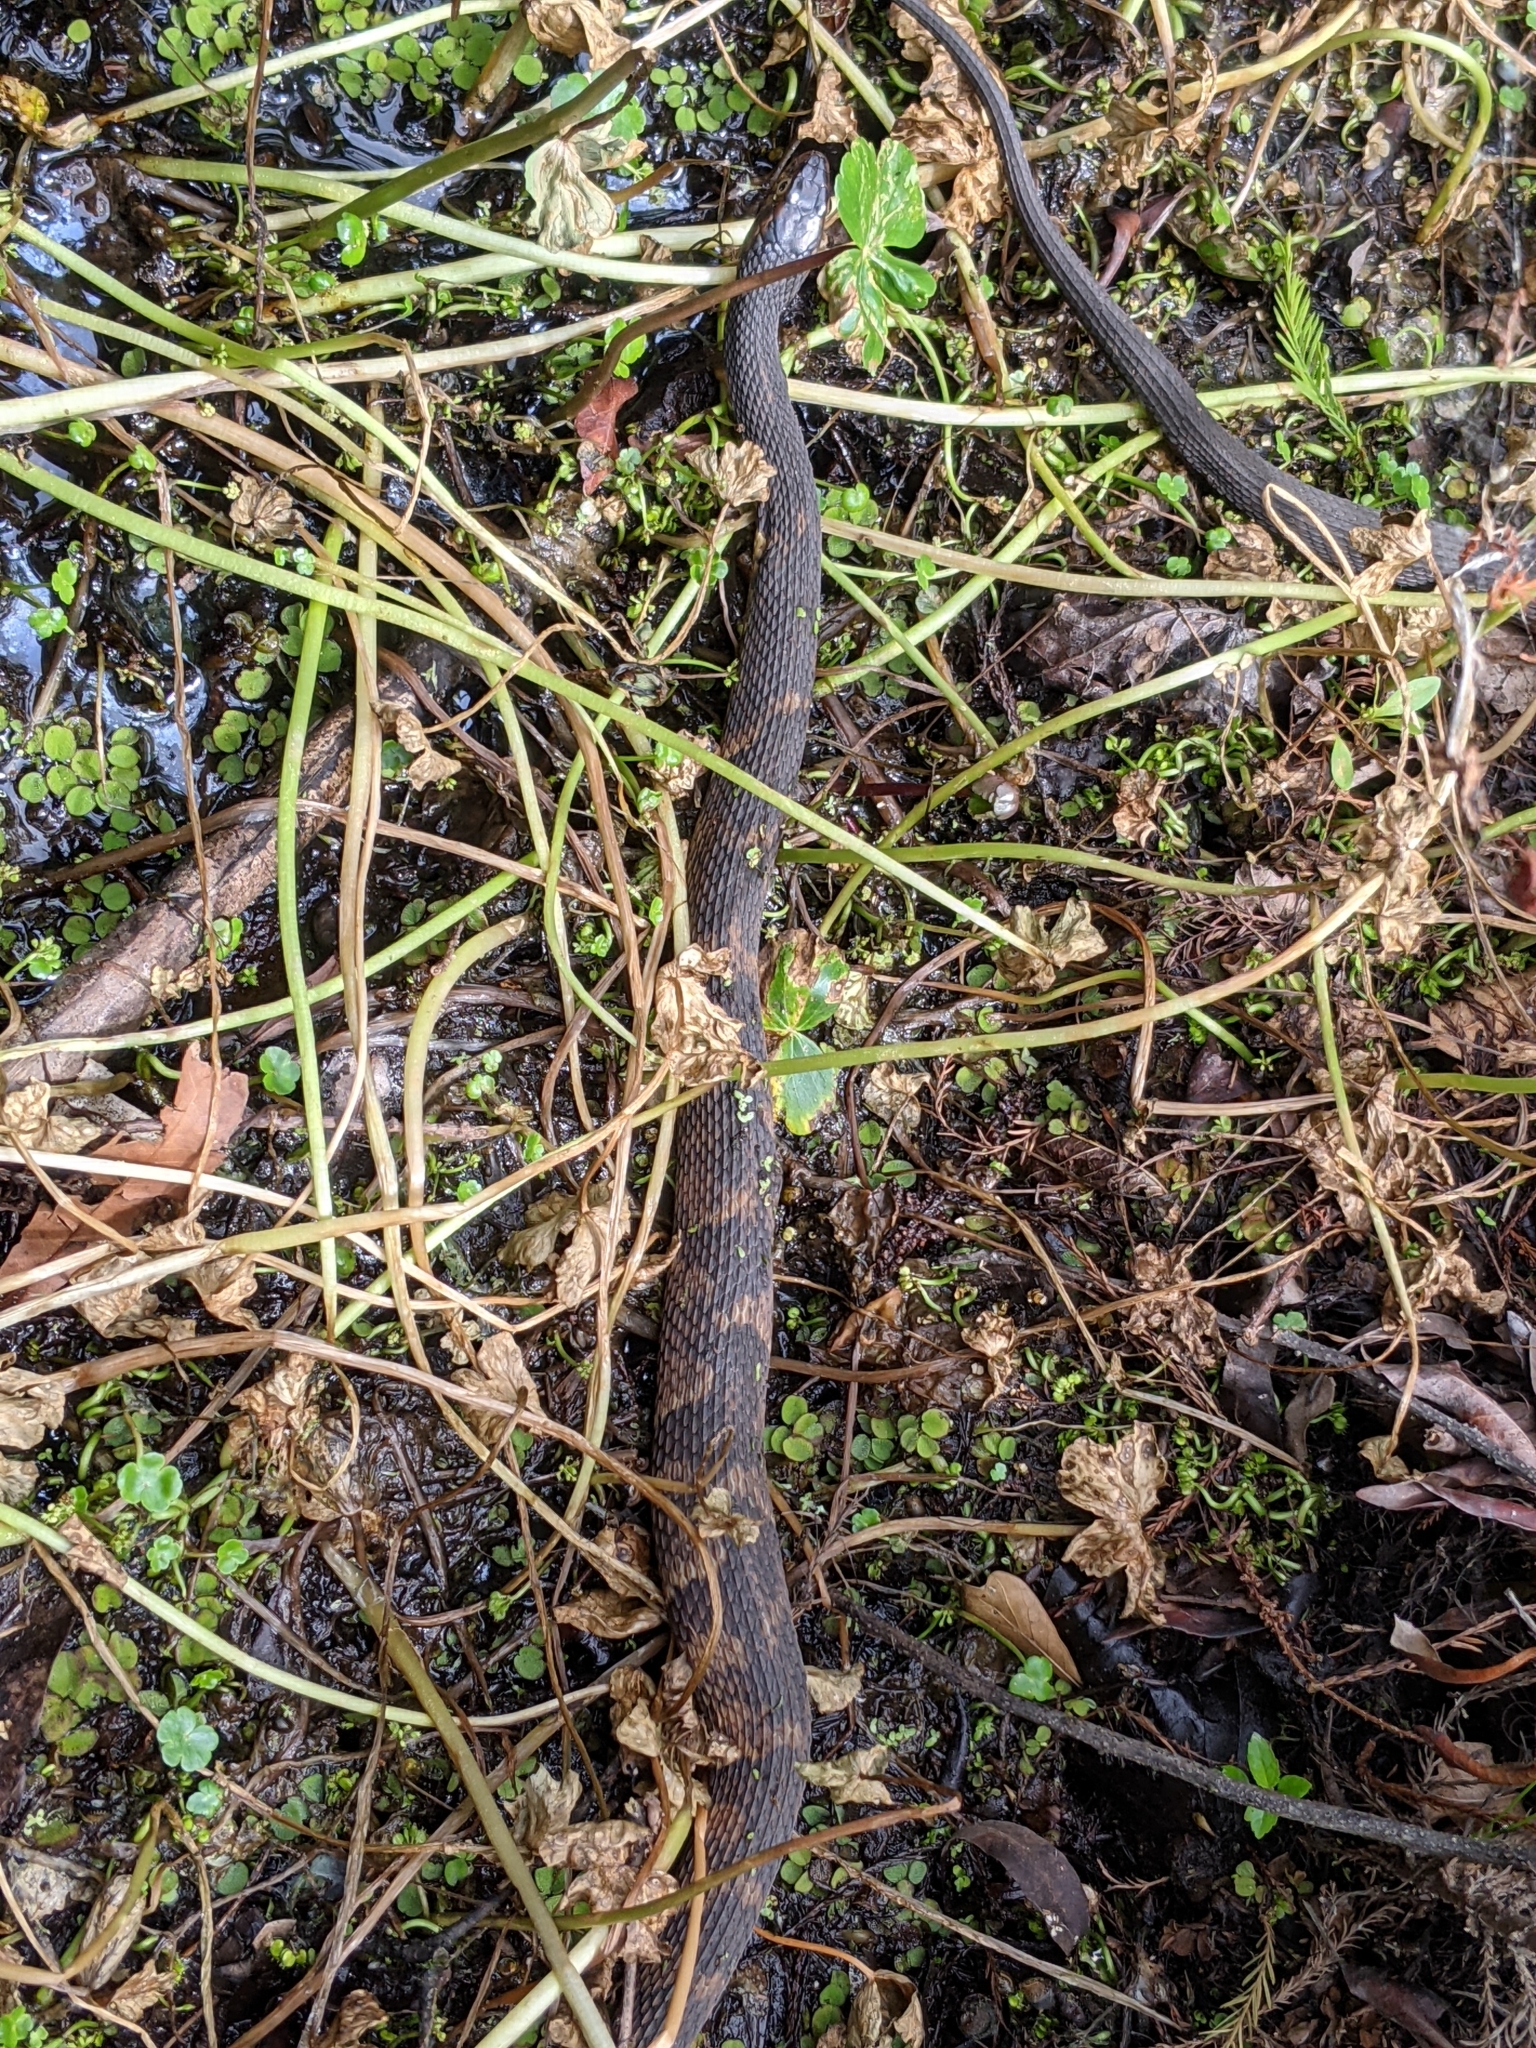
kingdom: Animalia
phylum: Chordata
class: Squamata
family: Colubridae
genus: Nerodia
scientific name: Nerodia fasciata
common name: Southern water snake
